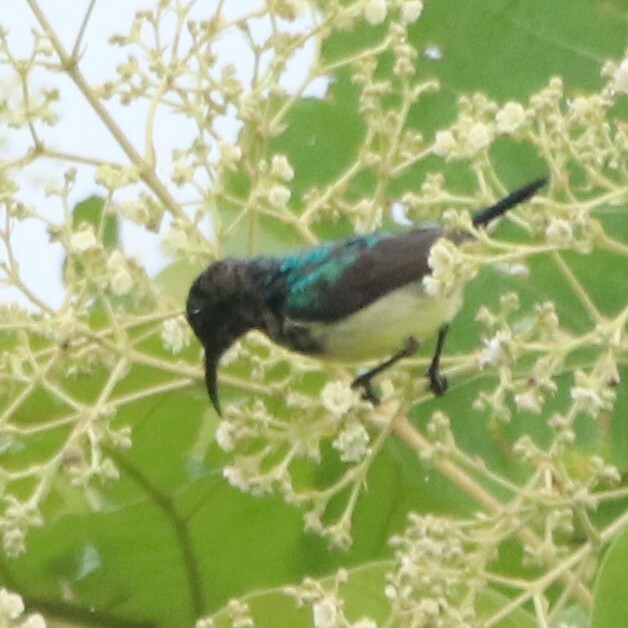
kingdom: Animalia
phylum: Chordata
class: Aves
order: Passeriformes
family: Nectariniidae
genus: Cinnyris
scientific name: Cinnyris venustus
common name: Variable sunbird
